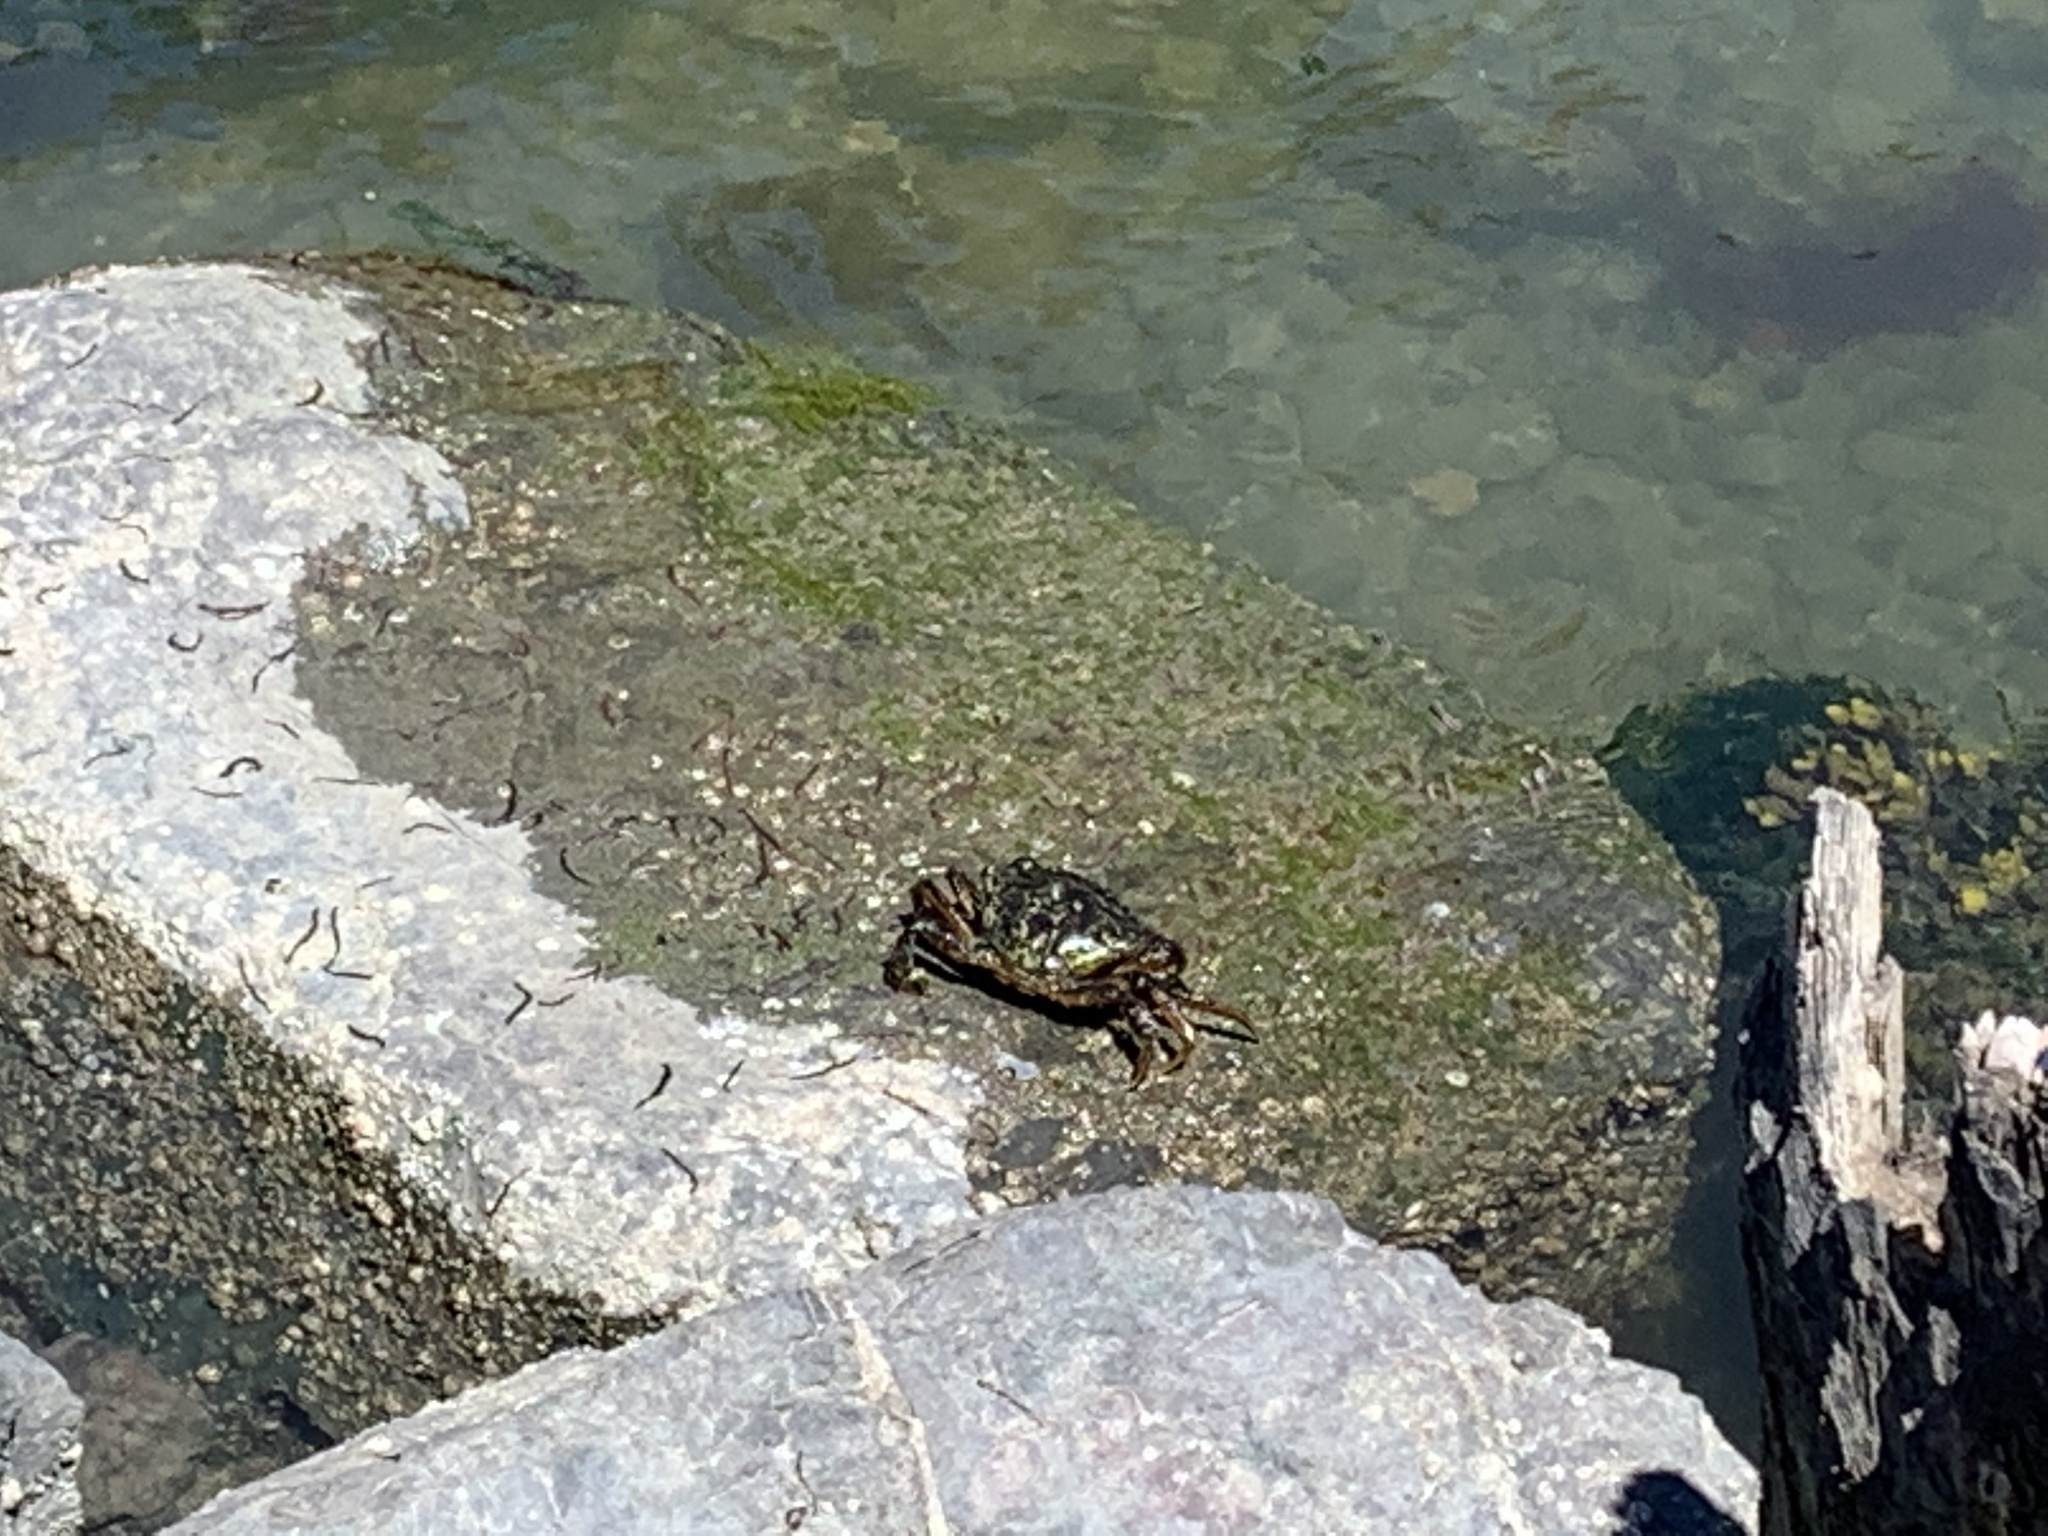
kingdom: Animalia
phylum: Arthropoda
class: Malacostraca
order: Decapoda
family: Carcinidae
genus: Carcinus
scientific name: Carcinus maenas
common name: European green crab
